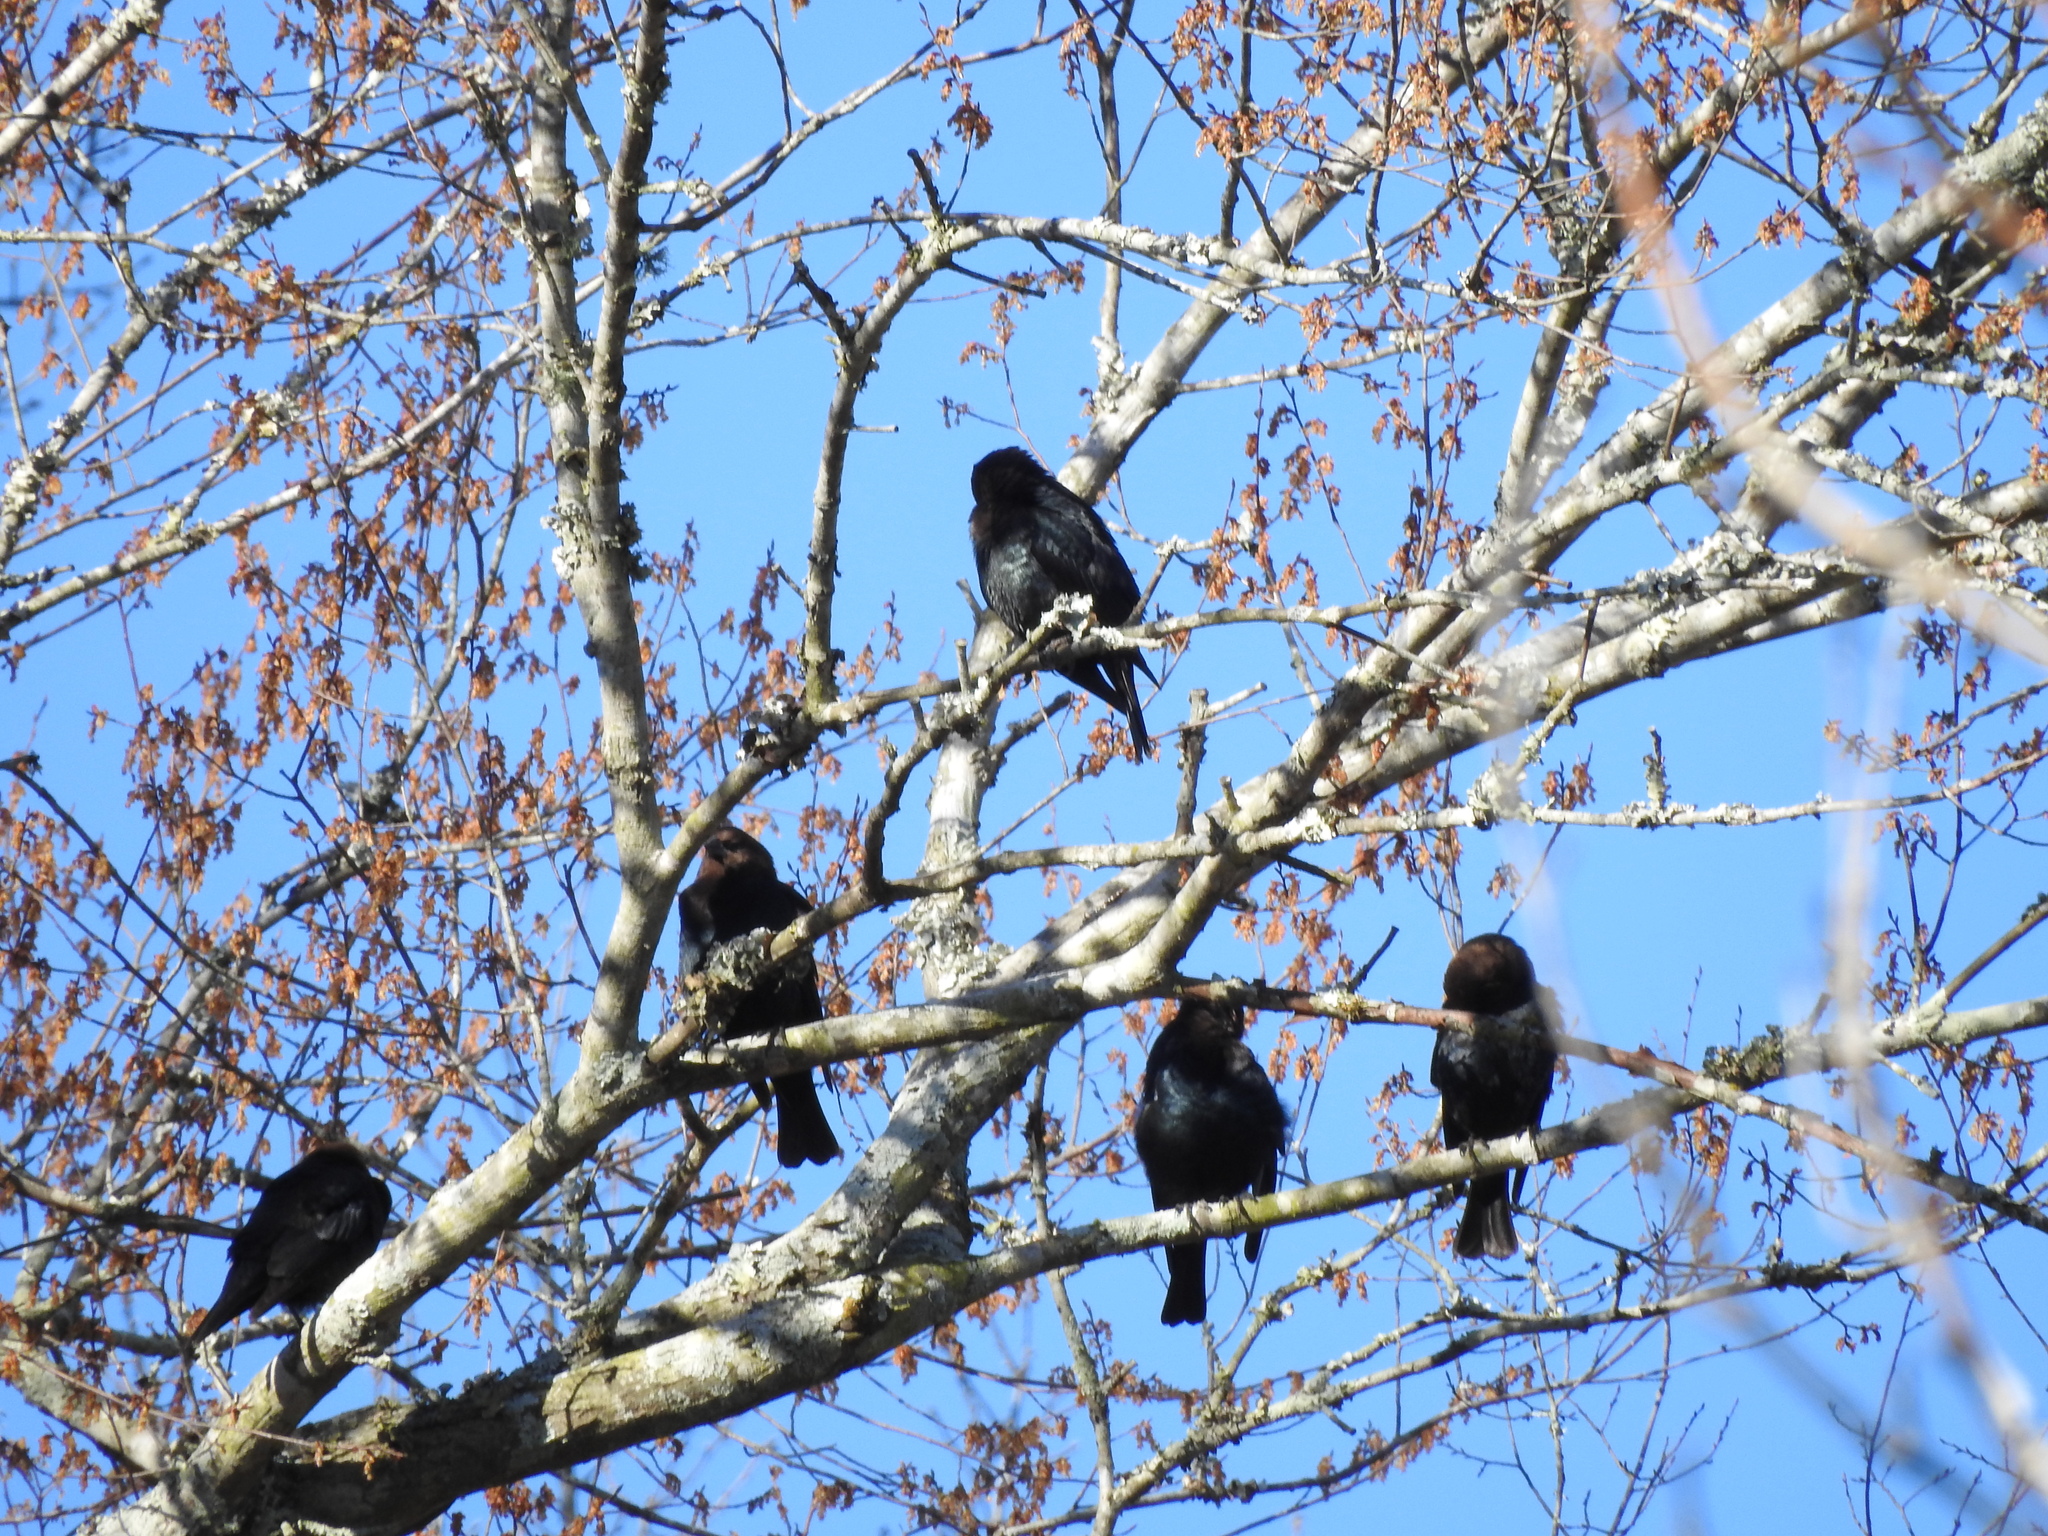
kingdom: Animalia
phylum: Chordata
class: Aves
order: Passeriformes
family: Icteridae
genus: Molothrus
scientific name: Molothrus ater
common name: Brown-headed cowbird
